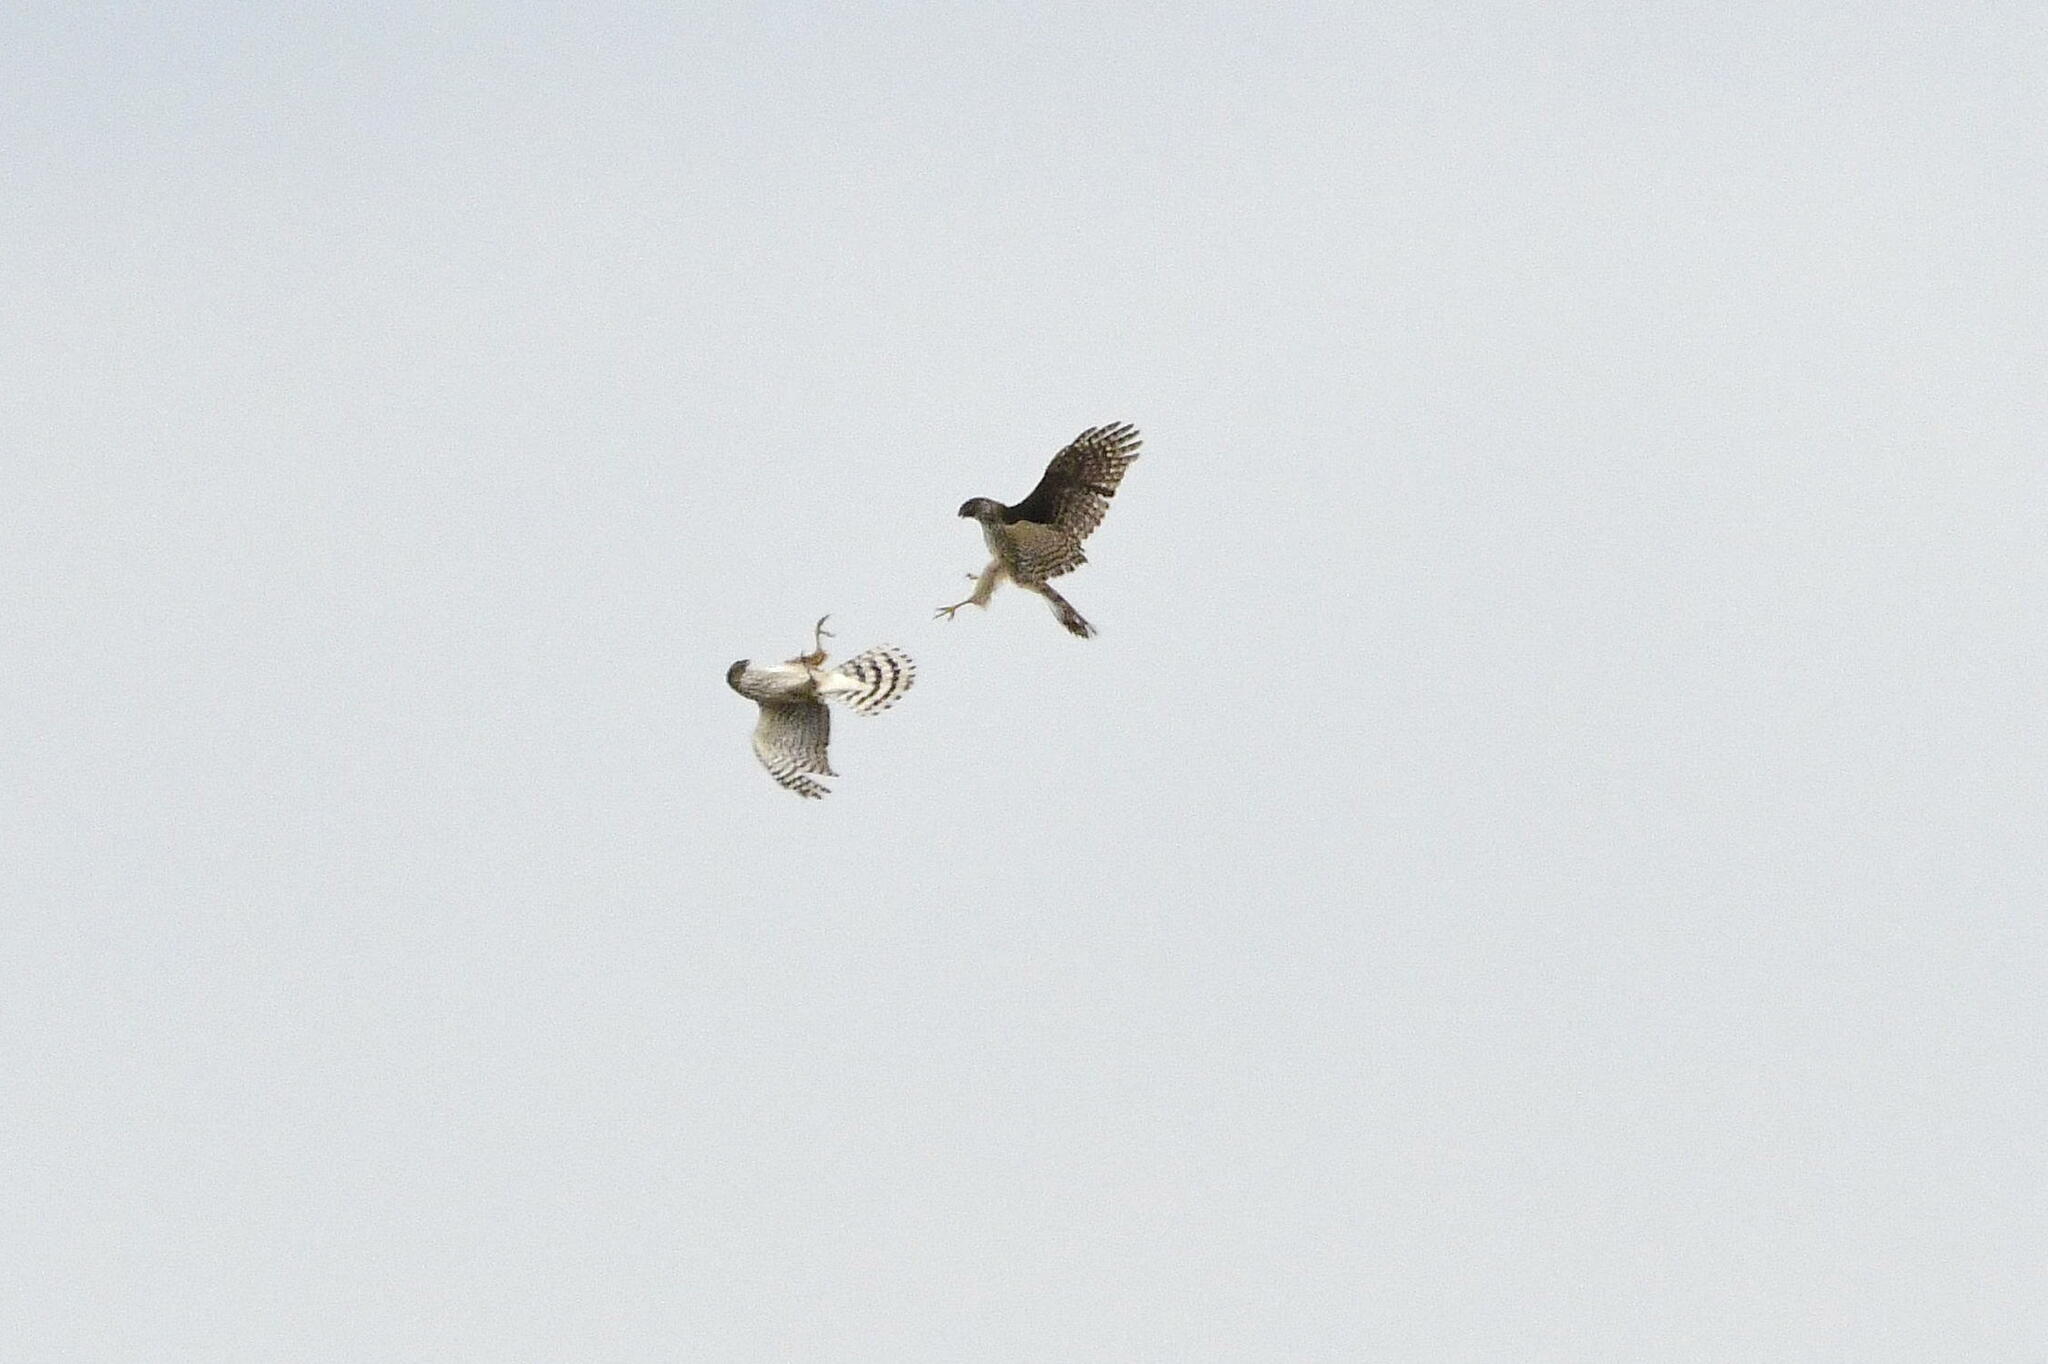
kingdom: Animalia
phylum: Chordata
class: Aves
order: Accipitriformes
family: Accipitridae
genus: Accipiter
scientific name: Accipiter cooperii
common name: Cooper's hawk
